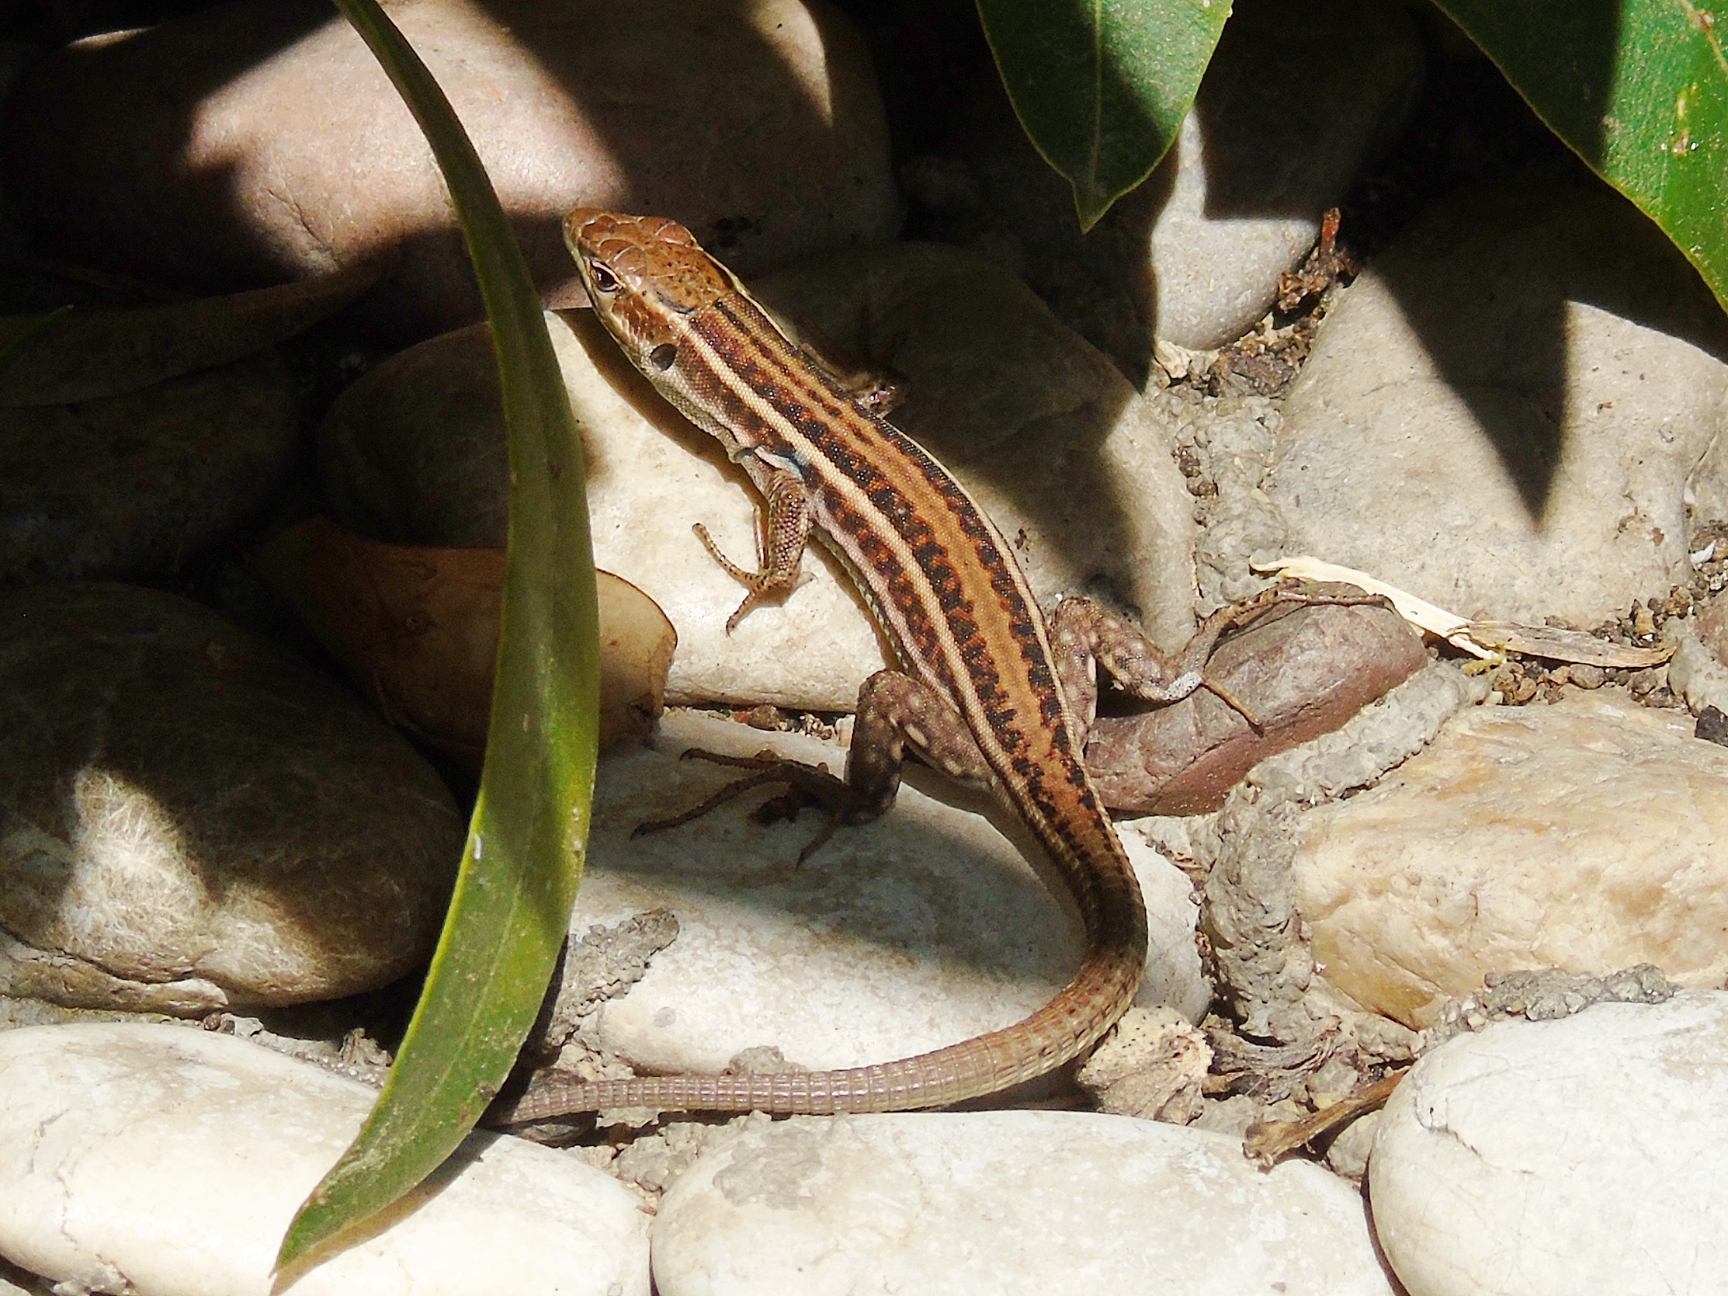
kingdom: Animalia
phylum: Chordata
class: Squamata
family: Lacertidae
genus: Podarcis
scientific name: Podarcis peloponnesiacus
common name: Peloponnese wall lizard
